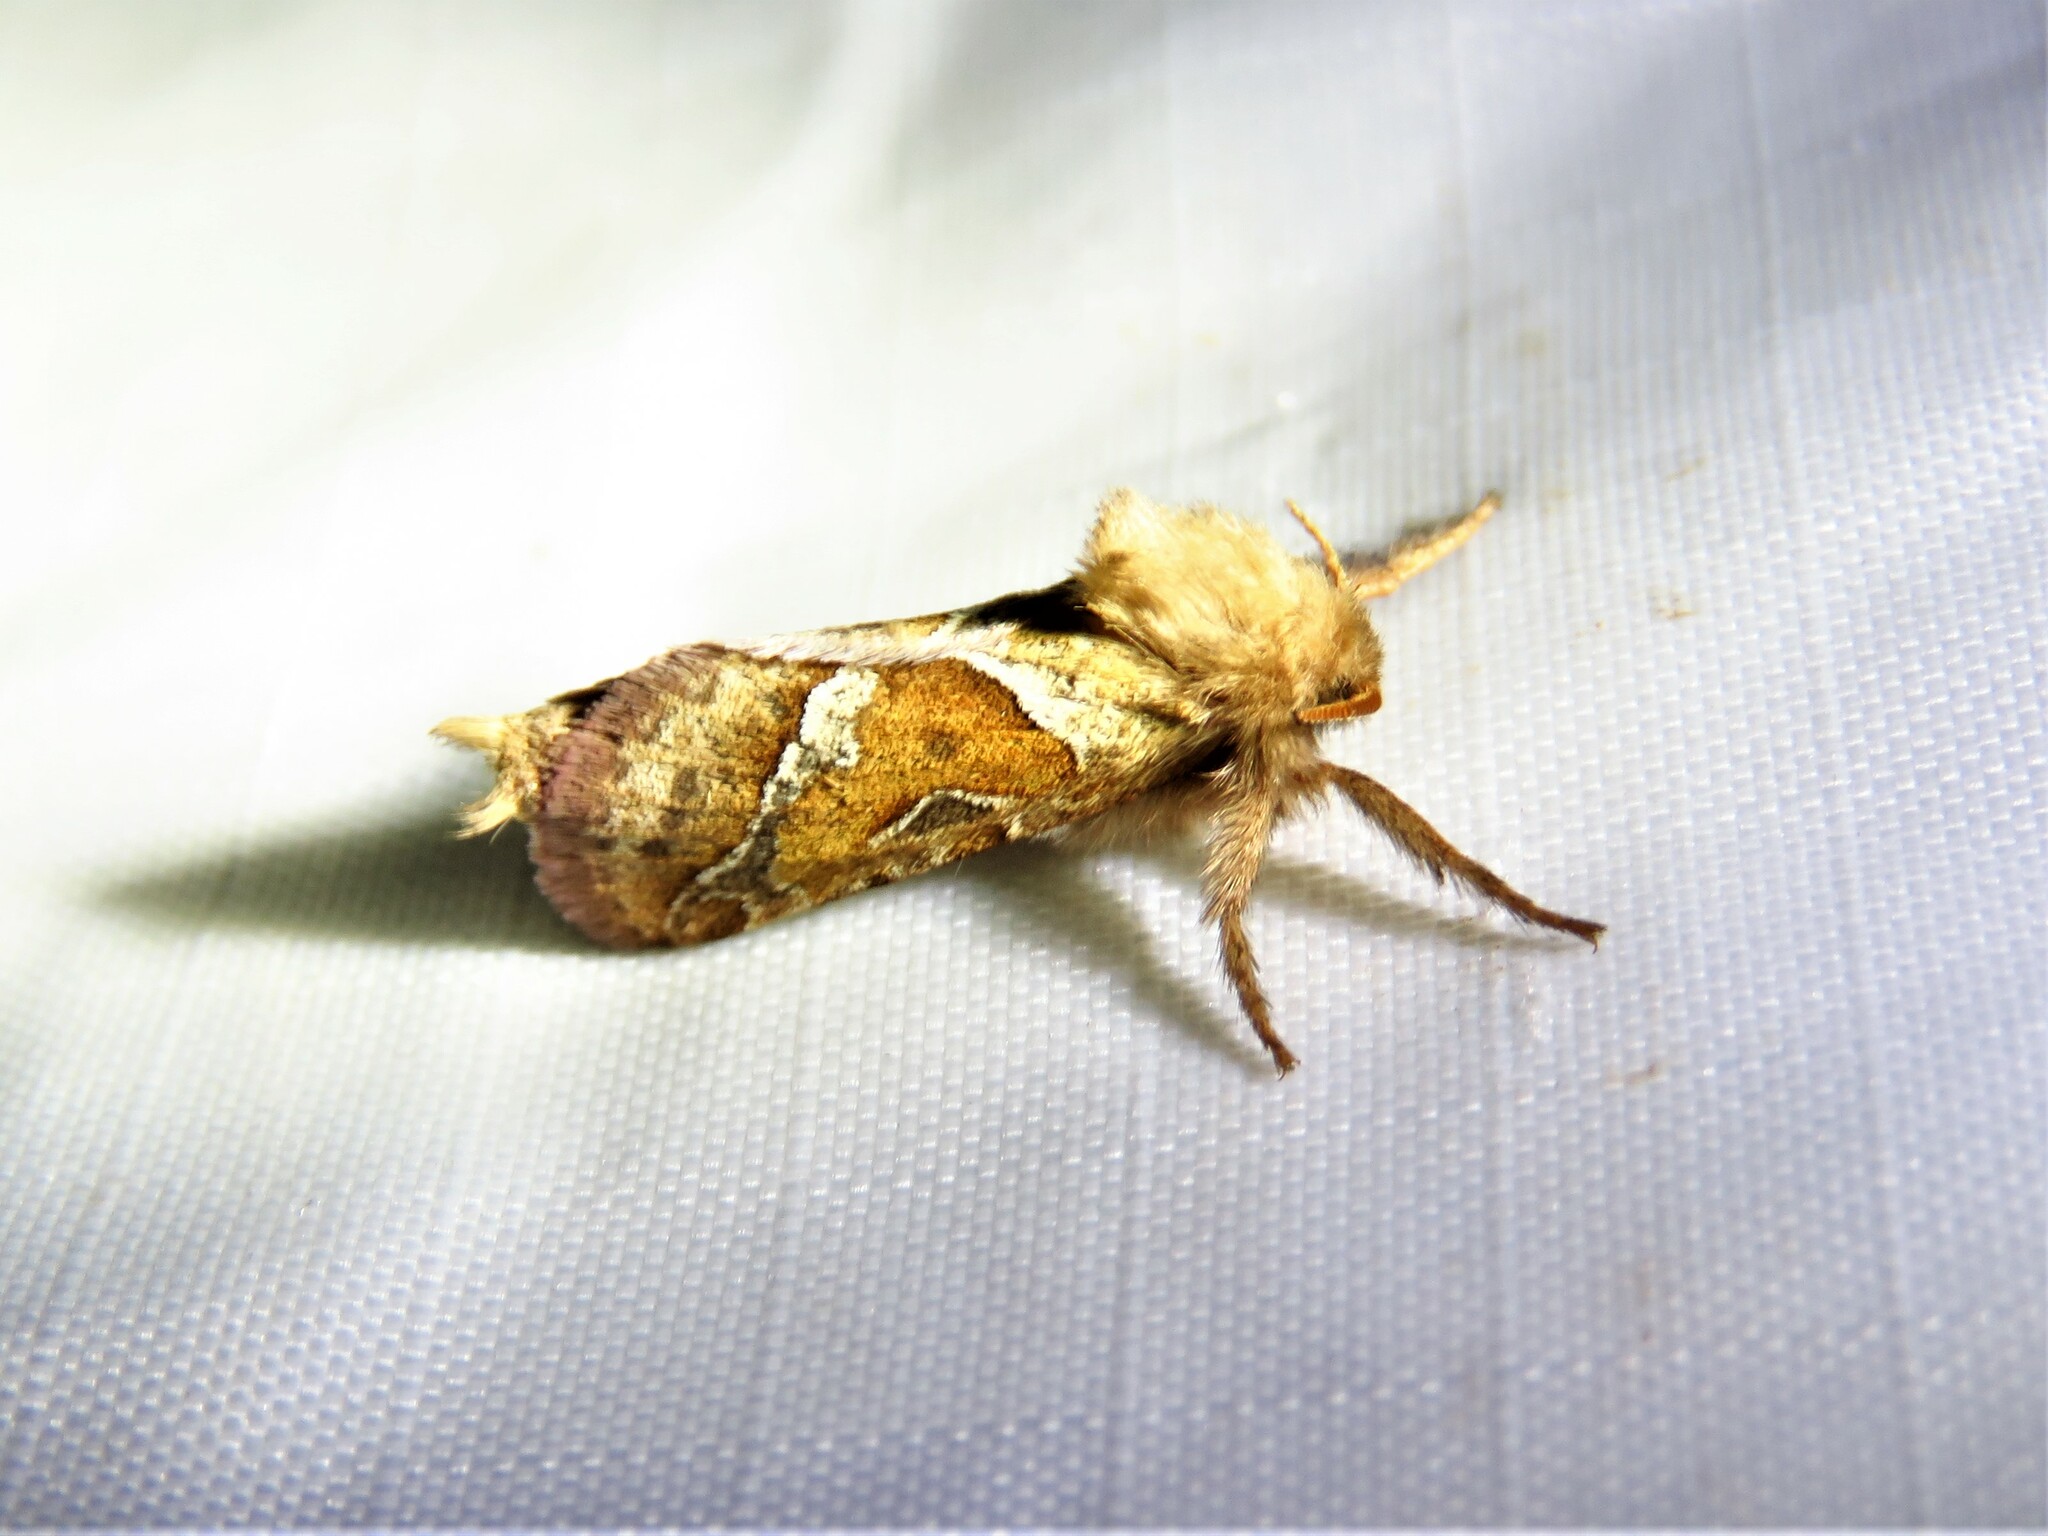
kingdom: Animalia
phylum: Arthropoda
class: Insecta
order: Lepidoptera
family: Hepialidae
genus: Triodia
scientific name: Triodia sylvina
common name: Orange swift
